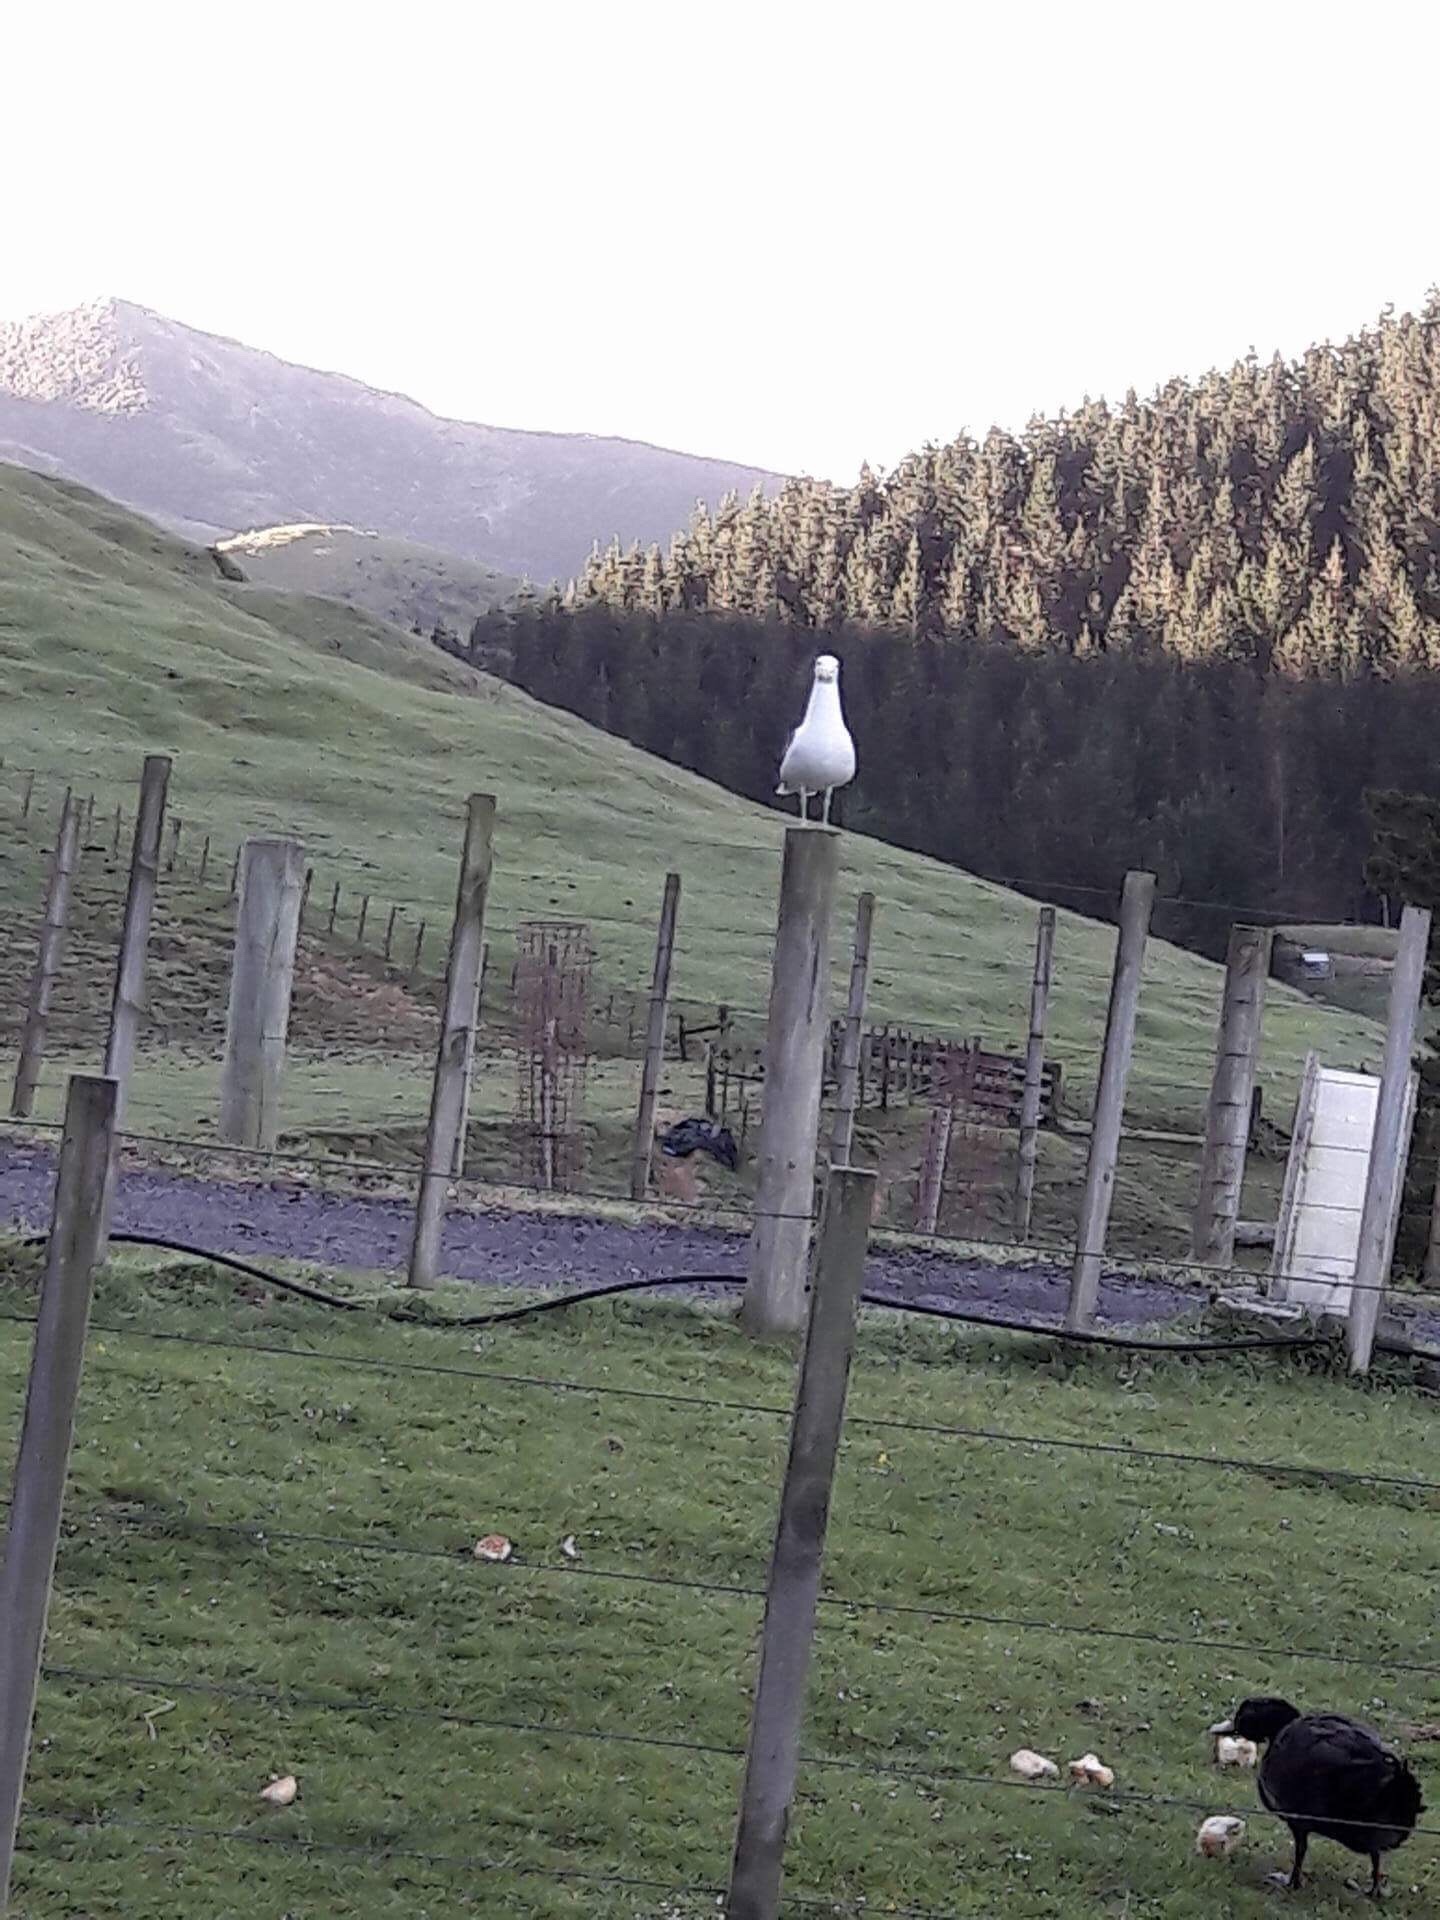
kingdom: Animalia
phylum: Chordata
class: Aves
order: Charadriiformes
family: Laridae
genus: Larus
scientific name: Larus dominicanus
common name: Kelp gull
